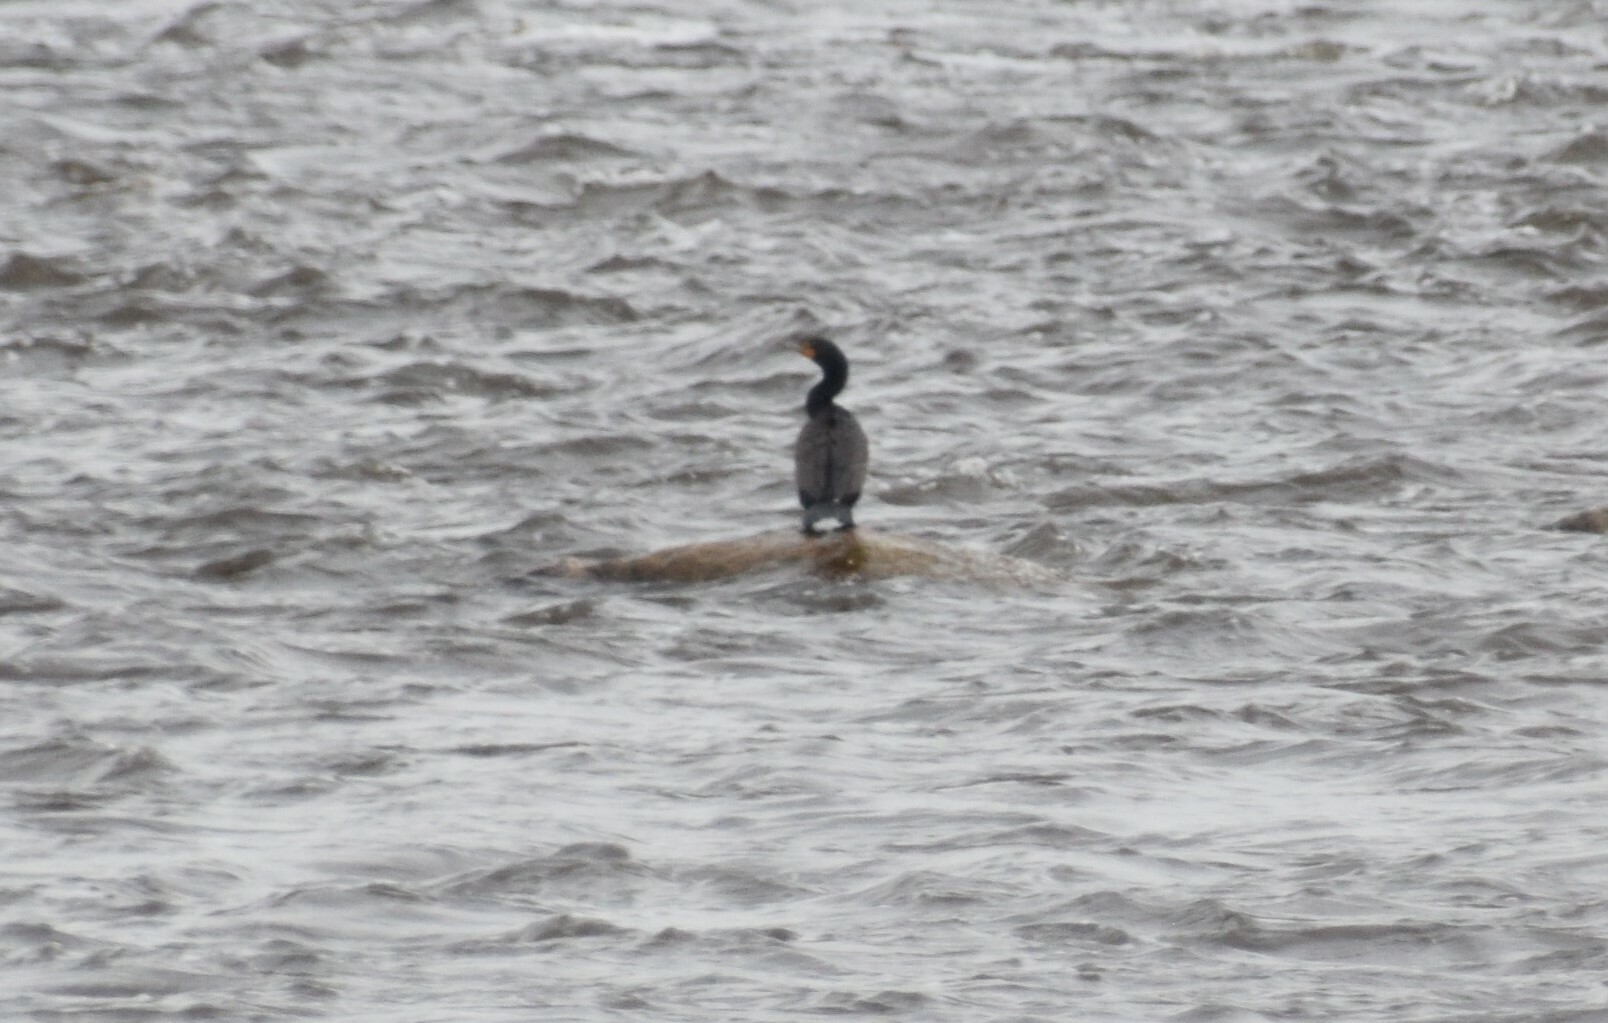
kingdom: Animalia
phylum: Chordata
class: Aves
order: Suliformes
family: Phalacrocoracidae
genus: Phalacrocorax
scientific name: Phalacrocorax auritus
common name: Double-crested cormorant
